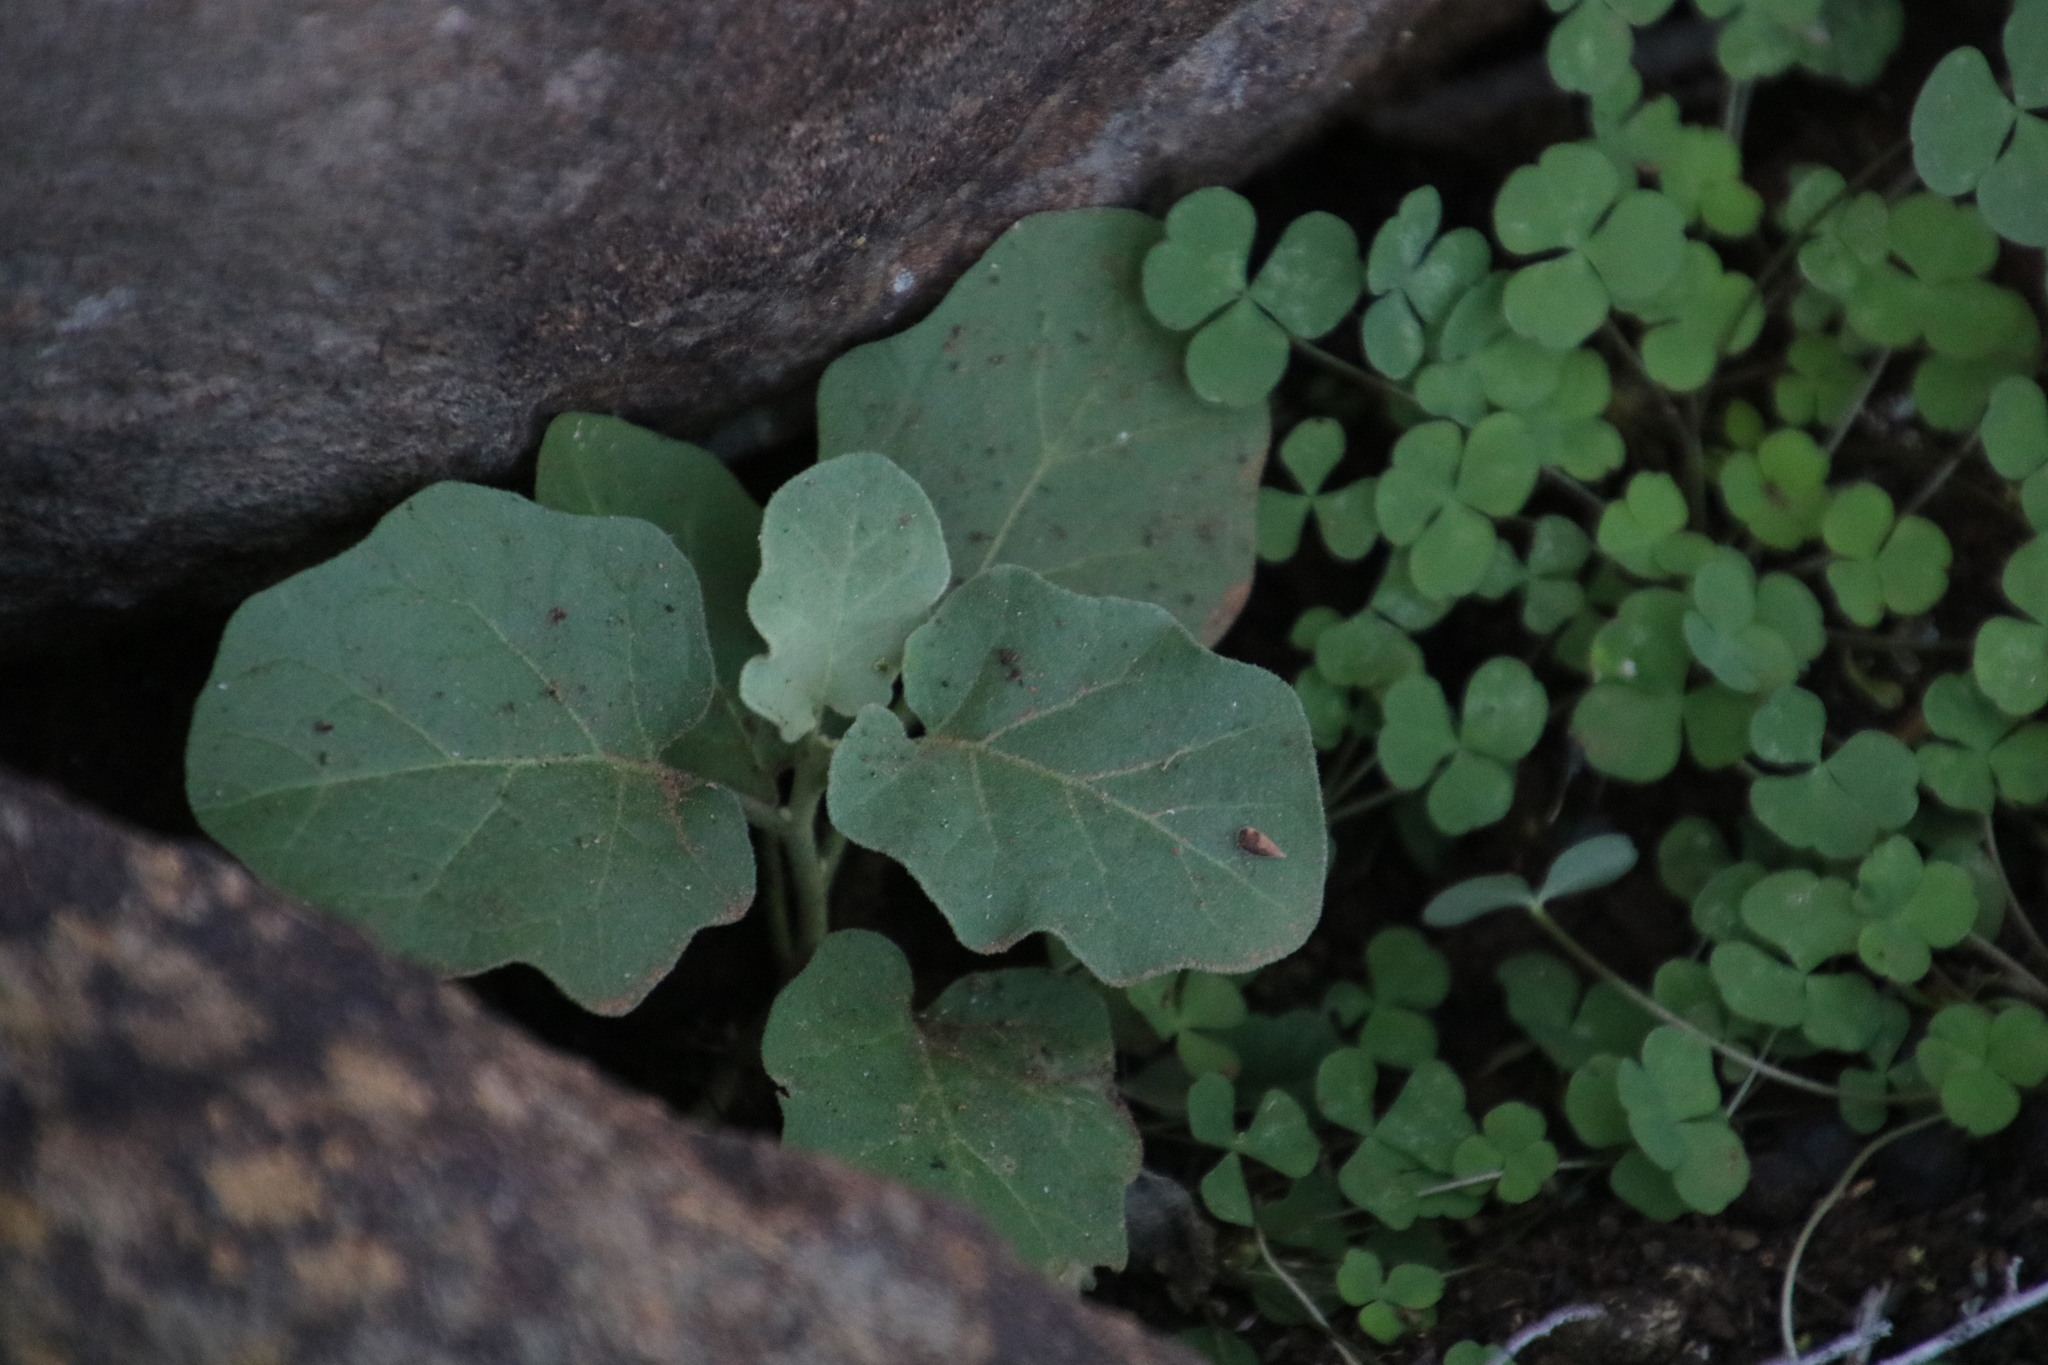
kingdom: Plantae
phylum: Tracheophyta
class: Magnoliopsida
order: Solanales
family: Solanaceae
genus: Solanum
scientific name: Solanum tomentosum
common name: Wild aubergine
